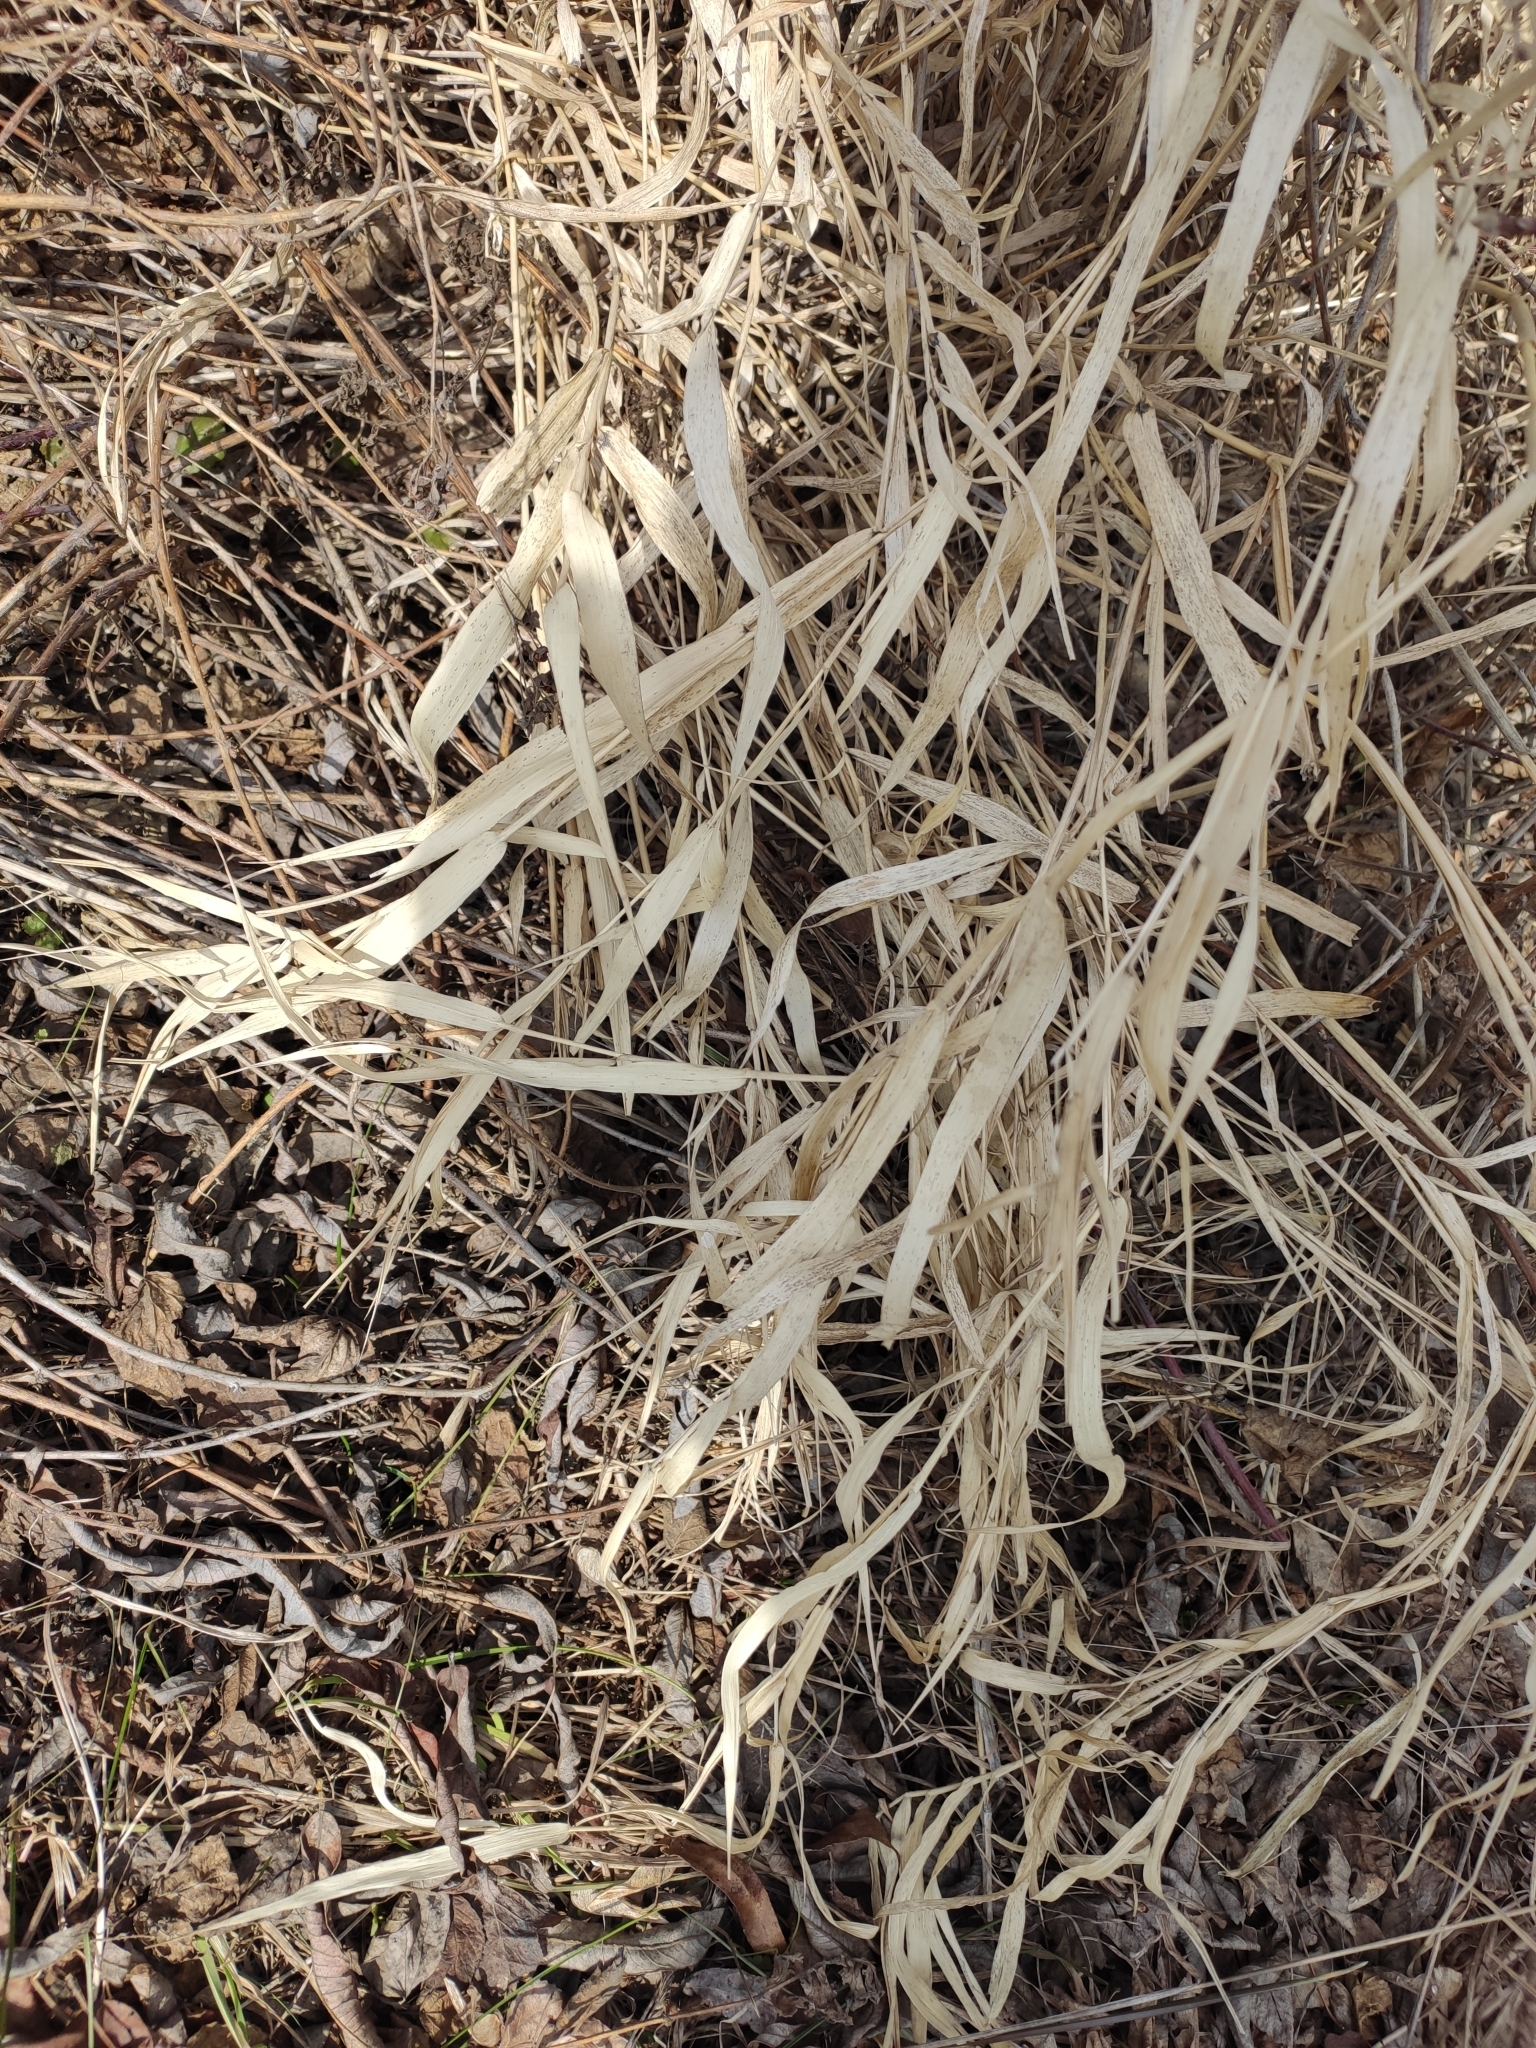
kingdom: Plantae
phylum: Tracheophyta
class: Liliopsida
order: Poales
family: Poaceae
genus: Phragmites
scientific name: Phragmites australis
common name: Common reed
